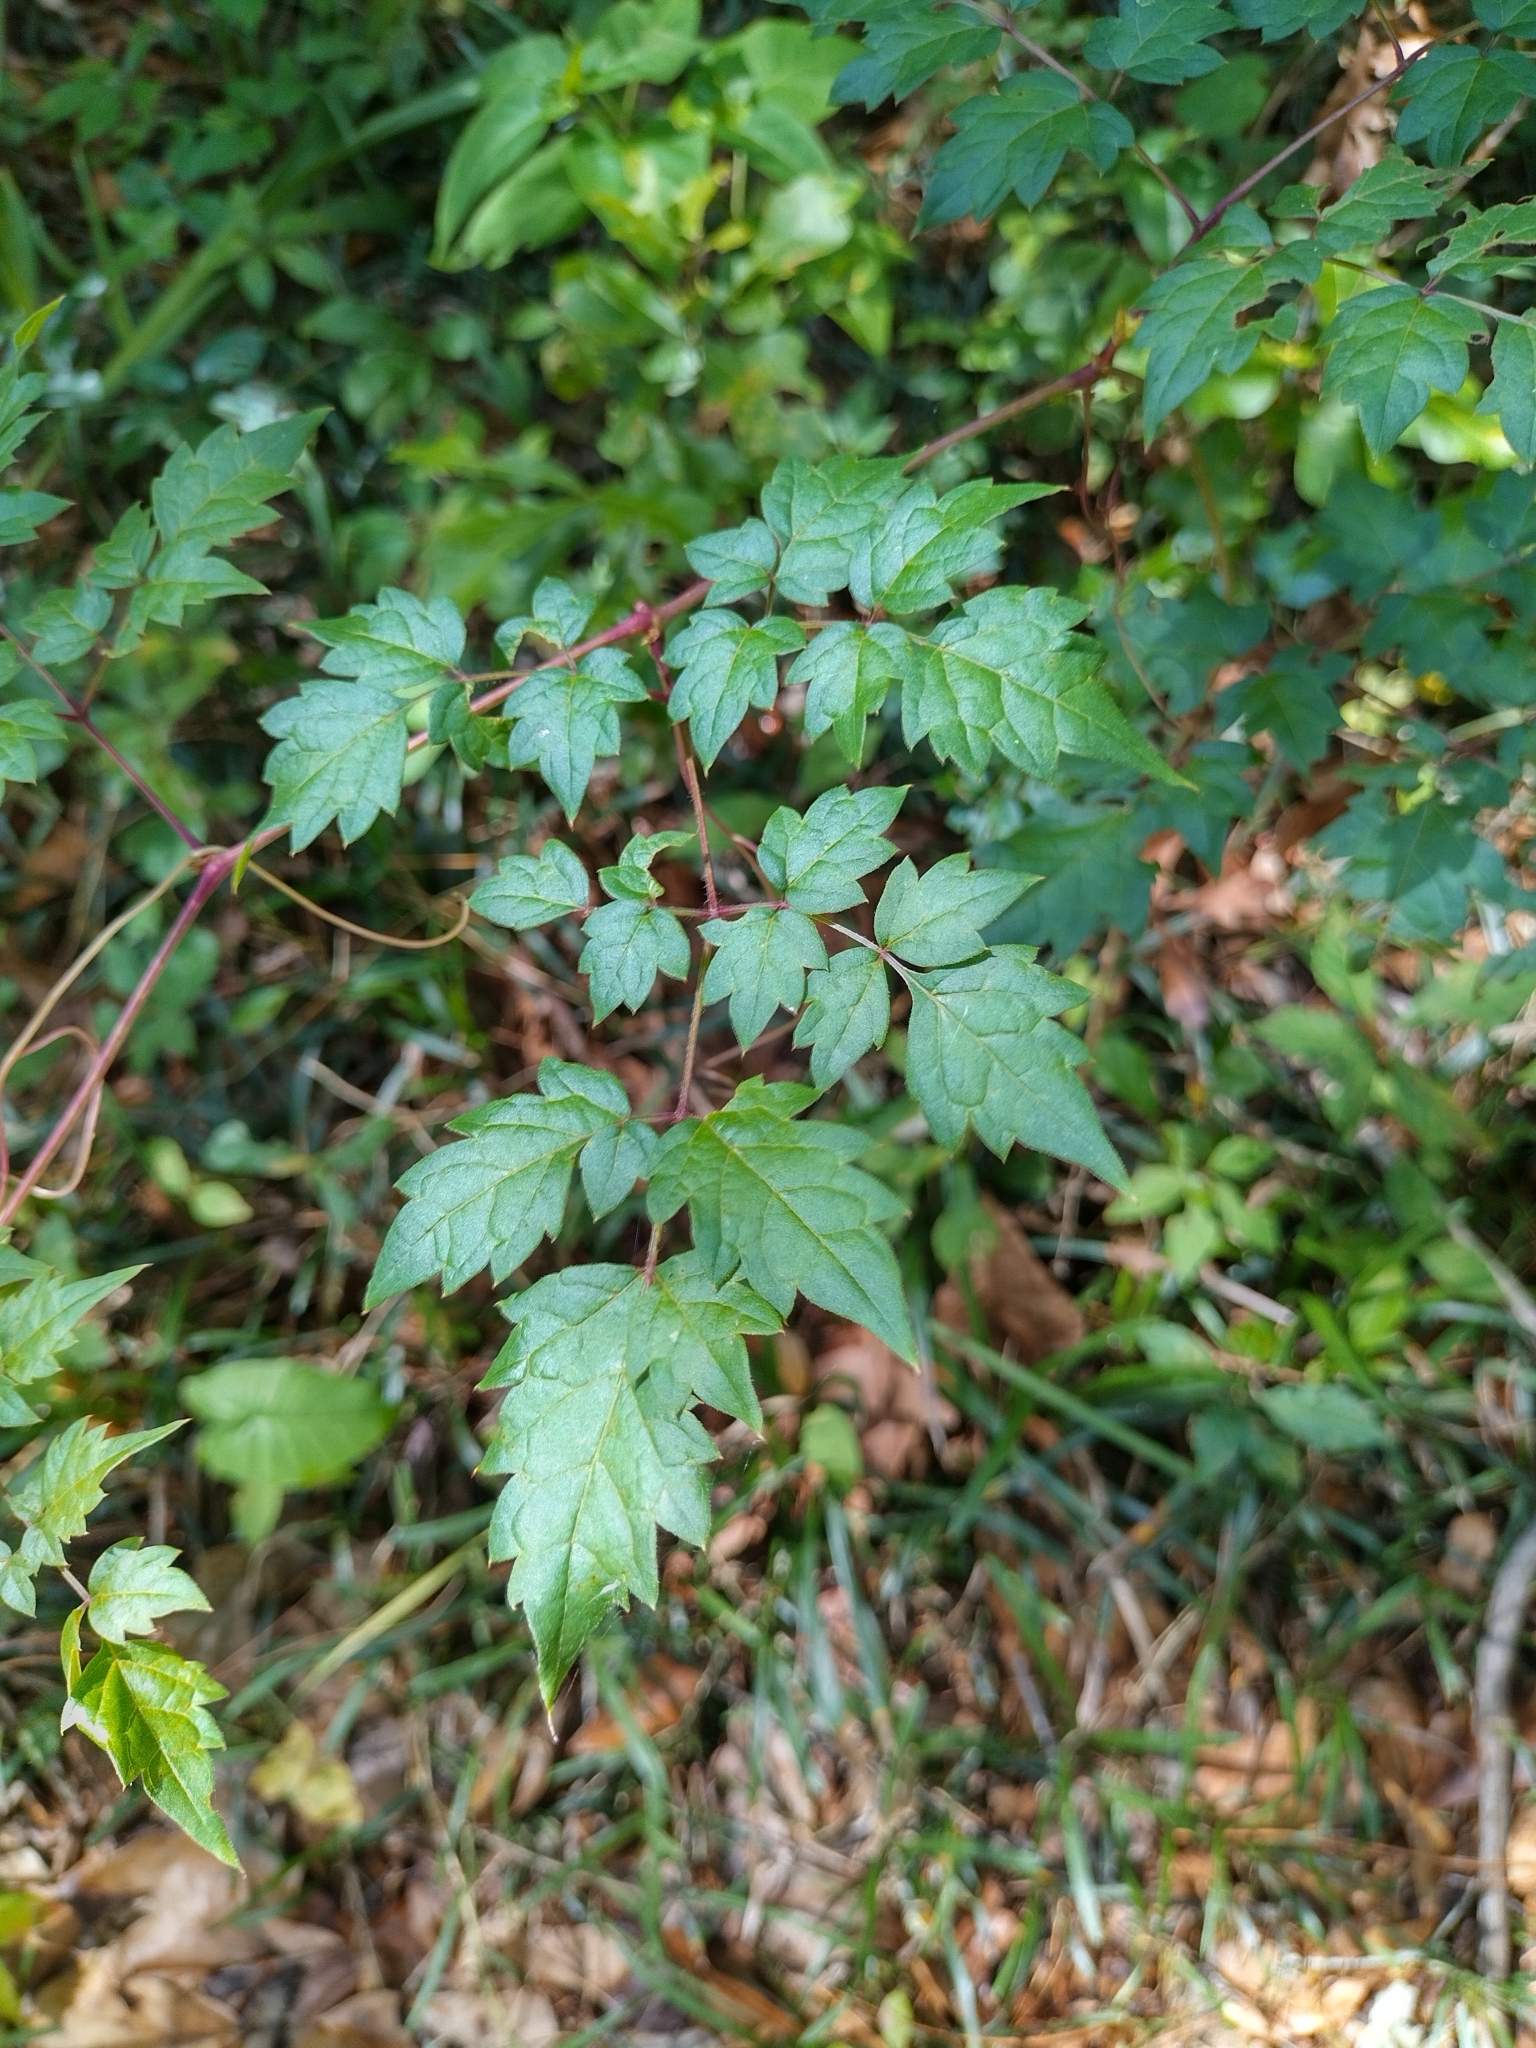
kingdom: Plantae
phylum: Tracheophyta
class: Magnoliopsida
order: Vitales
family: Vitaceae
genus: Nekemias
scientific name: Nekemias arborea
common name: Peppervine
